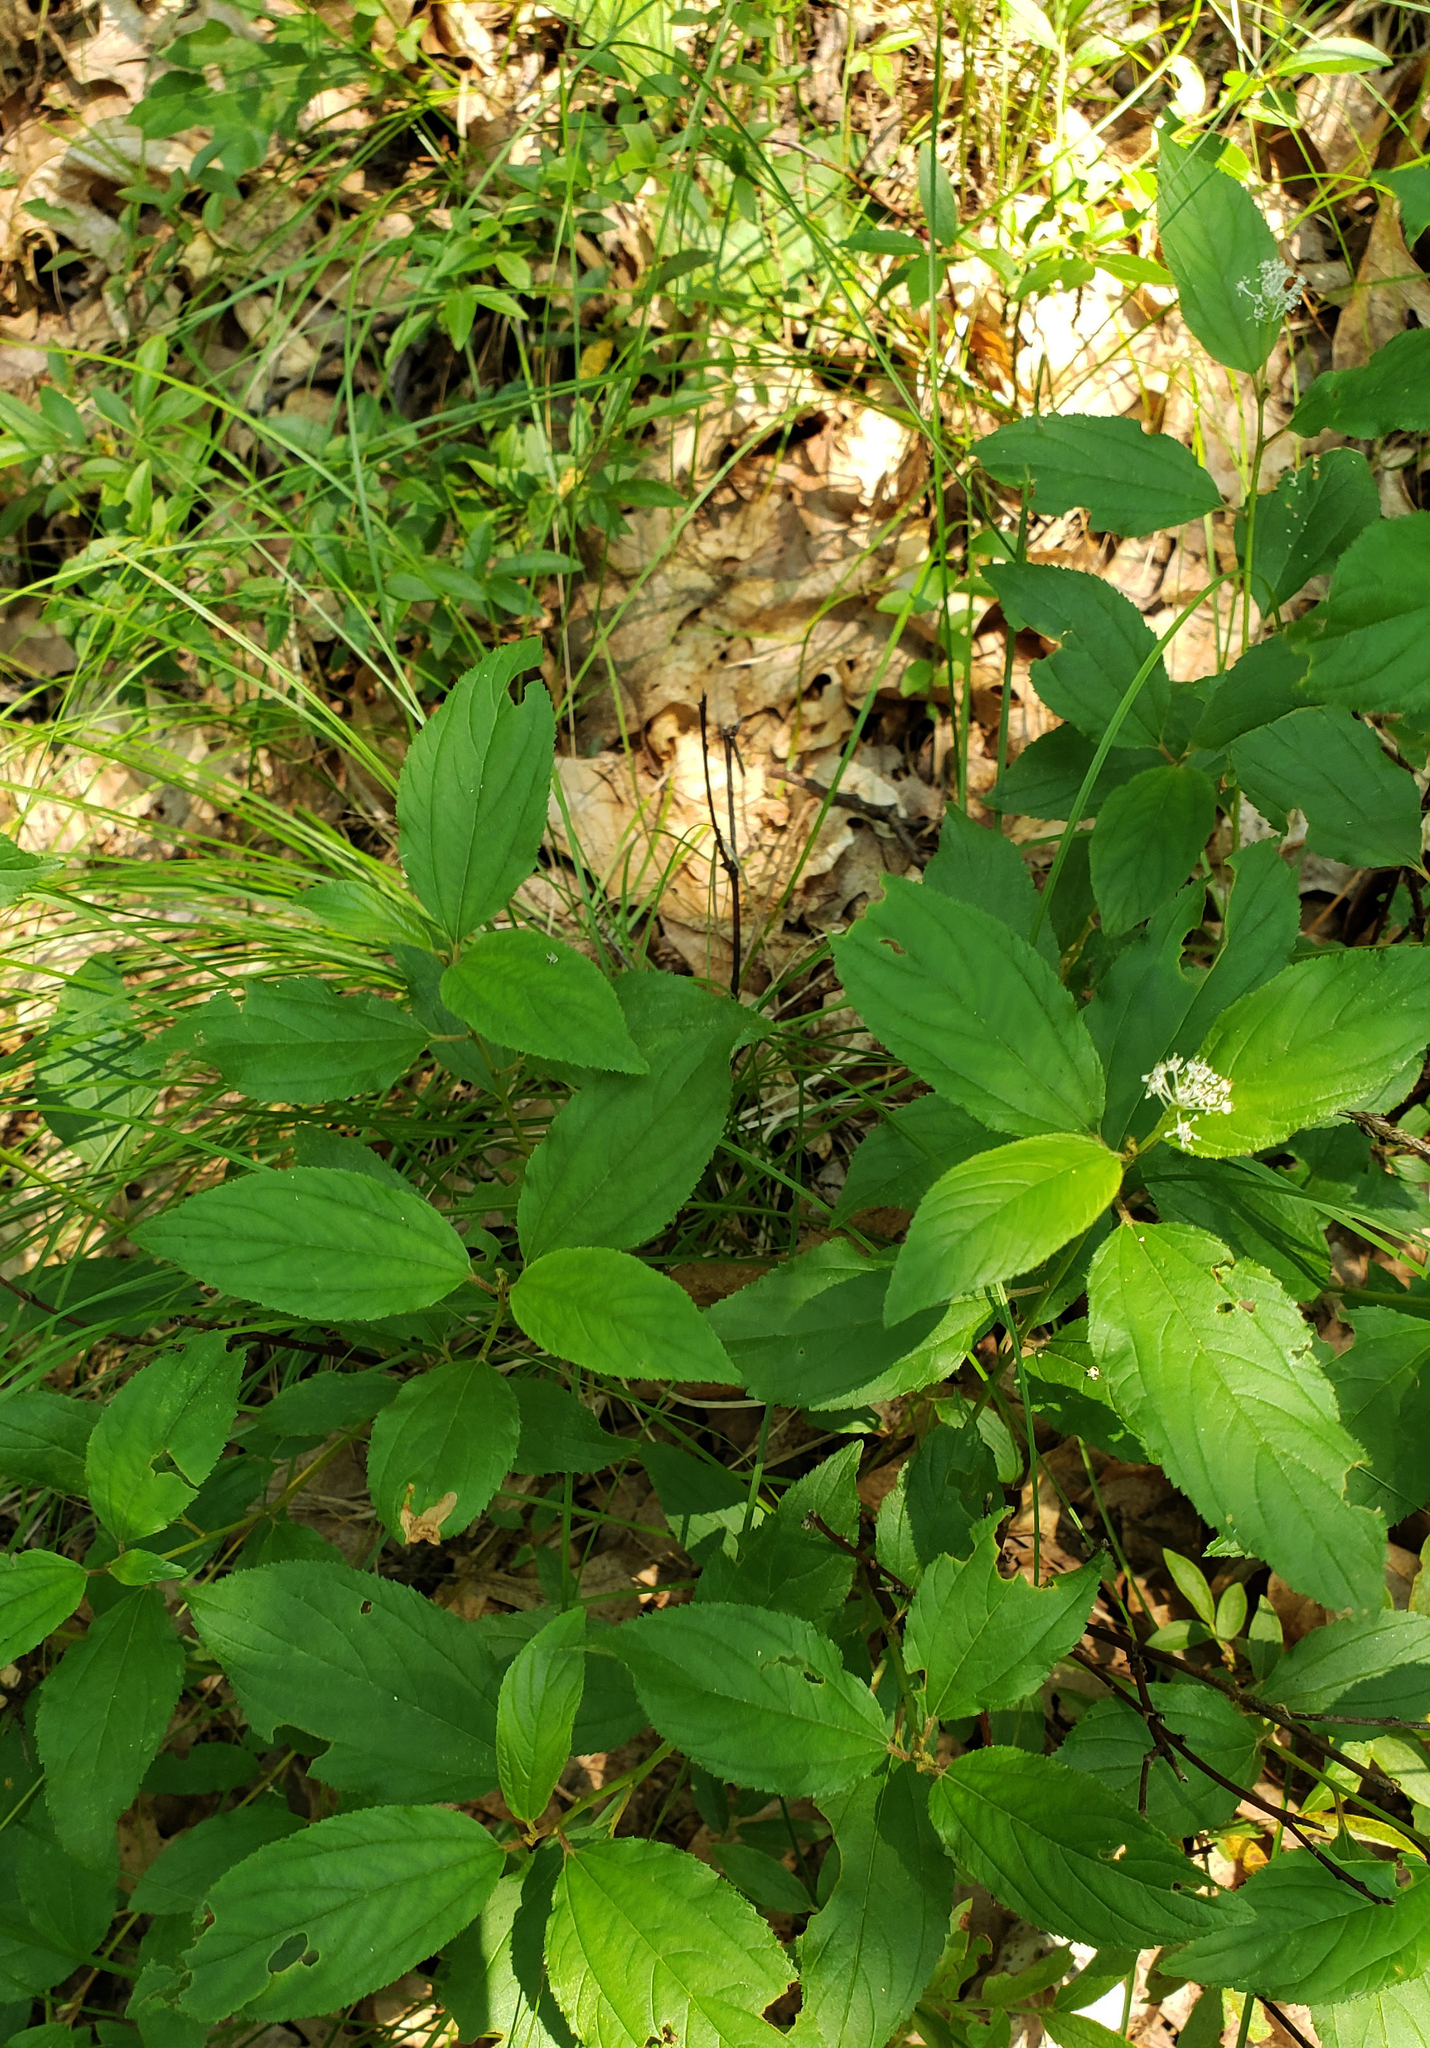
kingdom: Plantae
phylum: Tracheophyta
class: Magnoliopsida
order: Rosales
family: Rhamnaceae
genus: Ceanothus
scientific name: Ceanothus americanus
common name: Redroot
